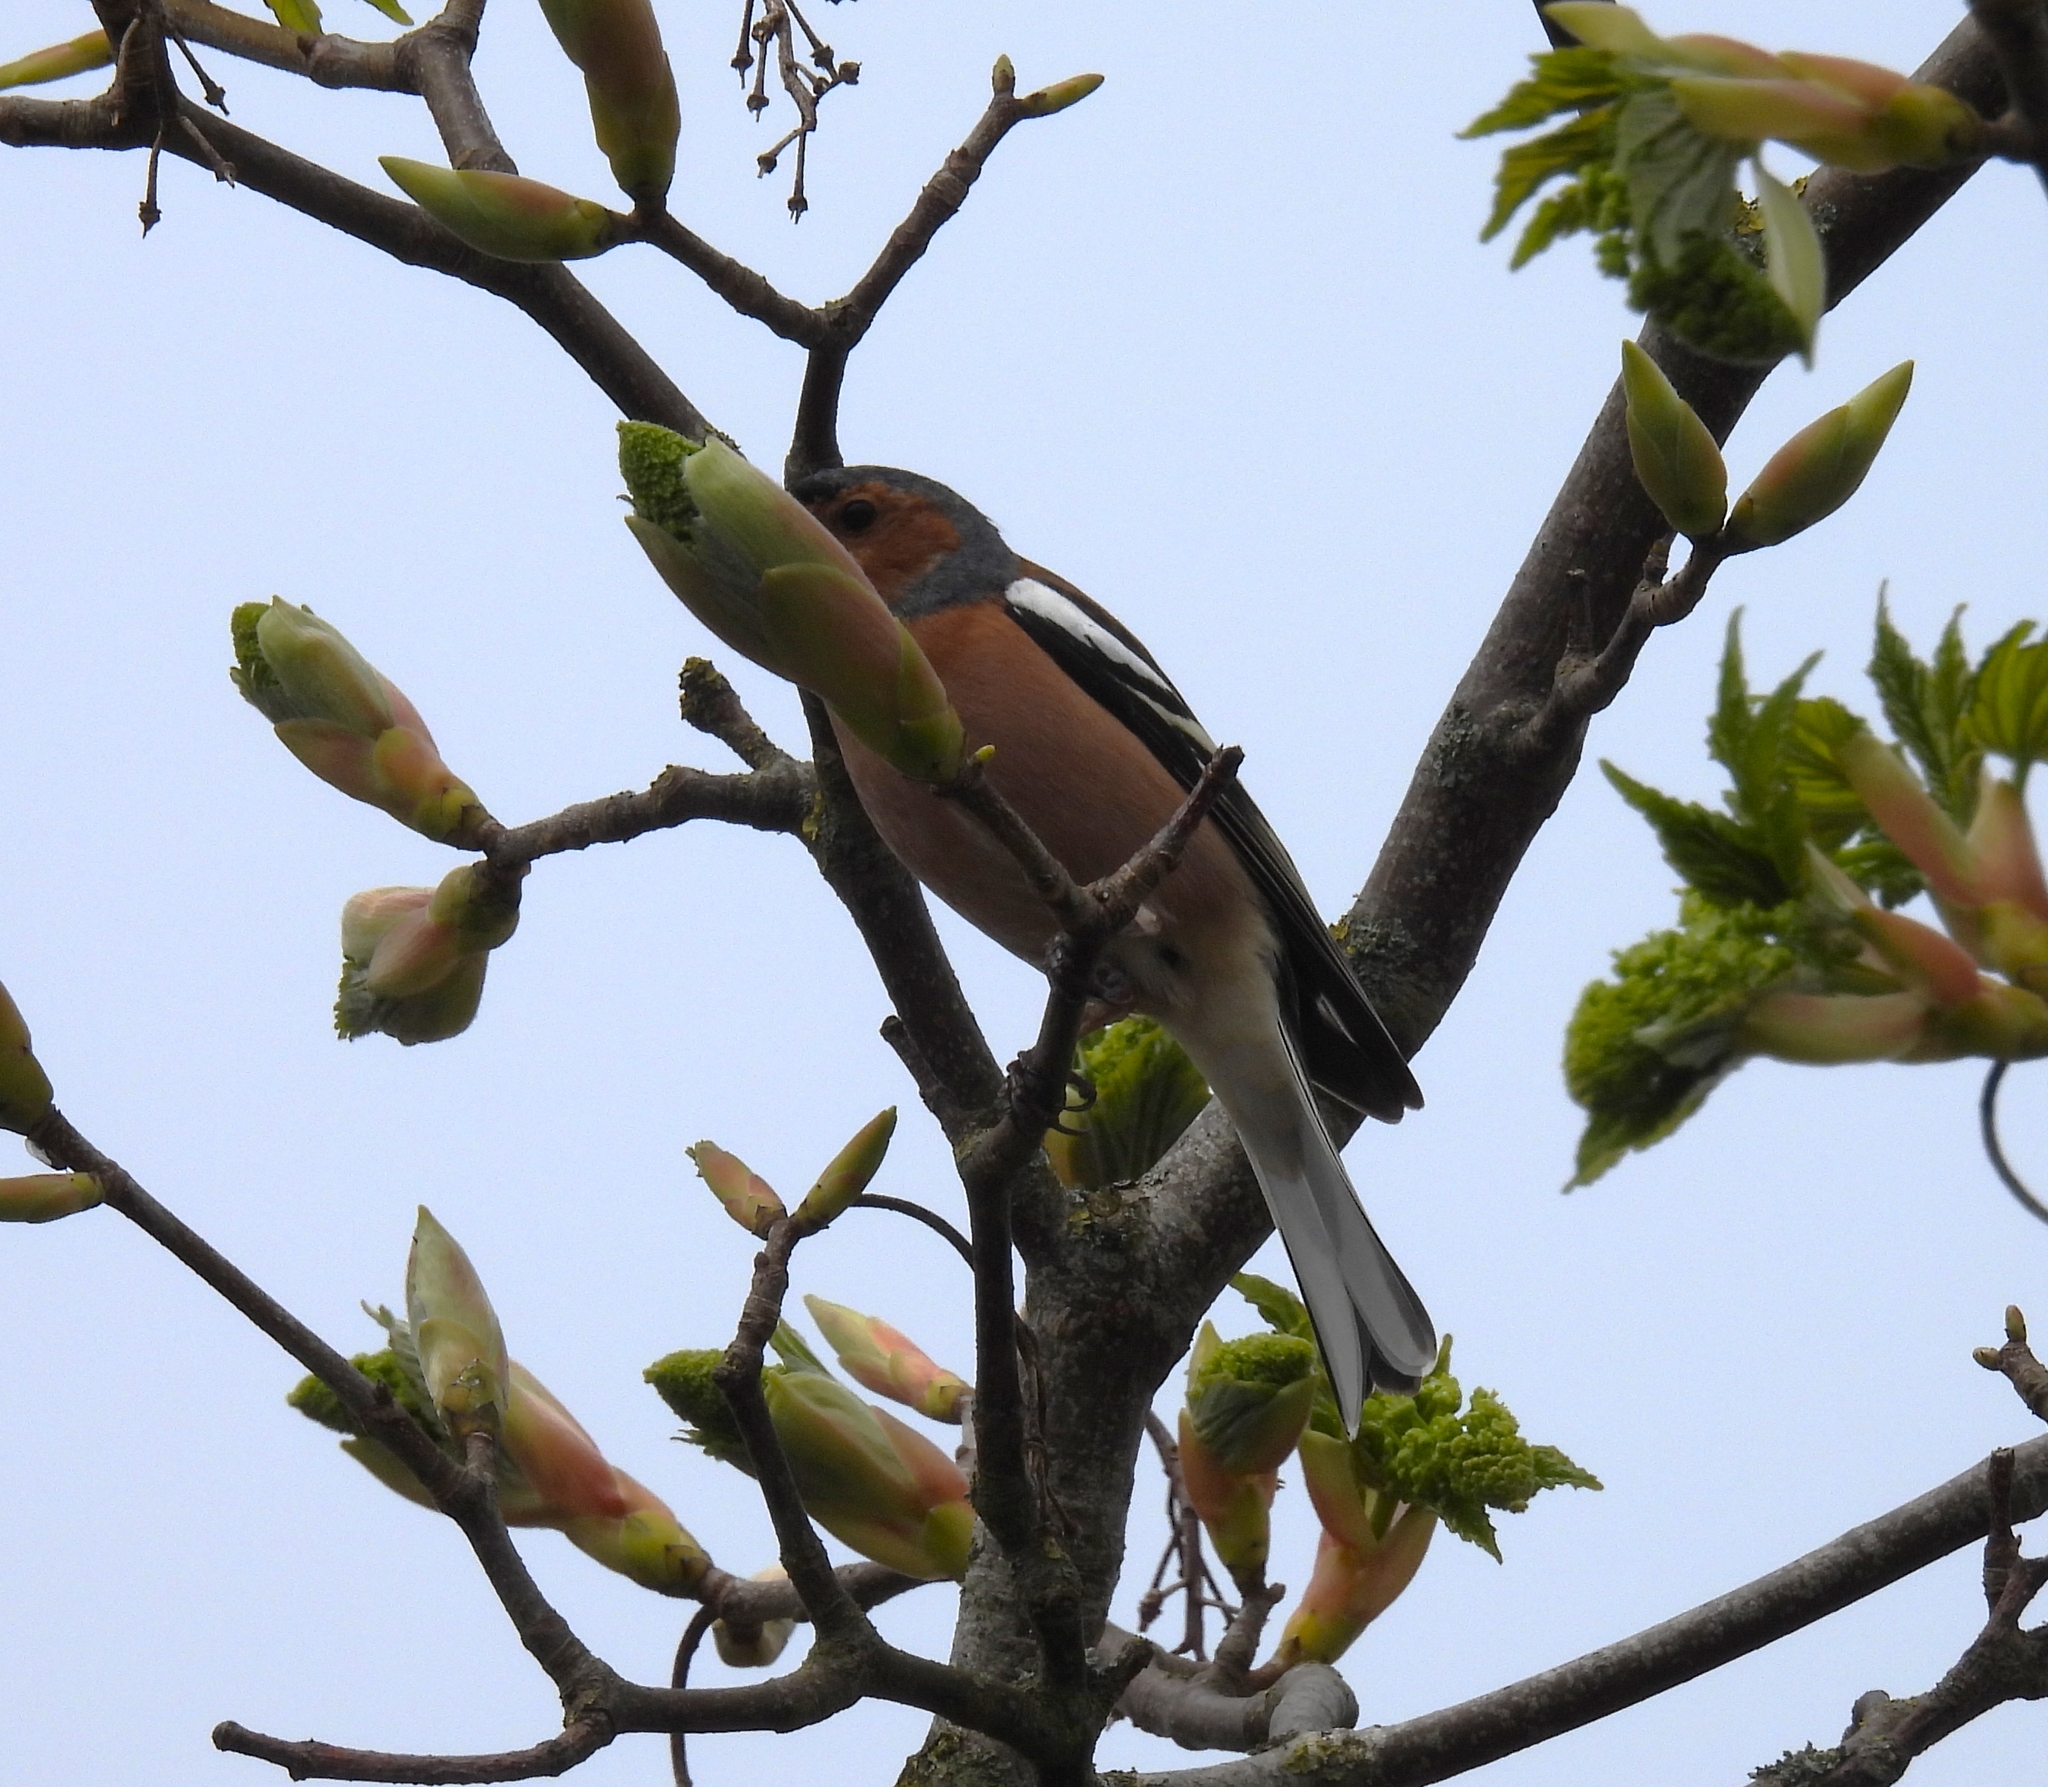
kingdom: Animalia
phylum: Chordata
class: Aves
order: Passeriformes
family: Fringillidae
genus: Fringilla
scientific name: Fringilla coelebs
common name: Common chaffinch
